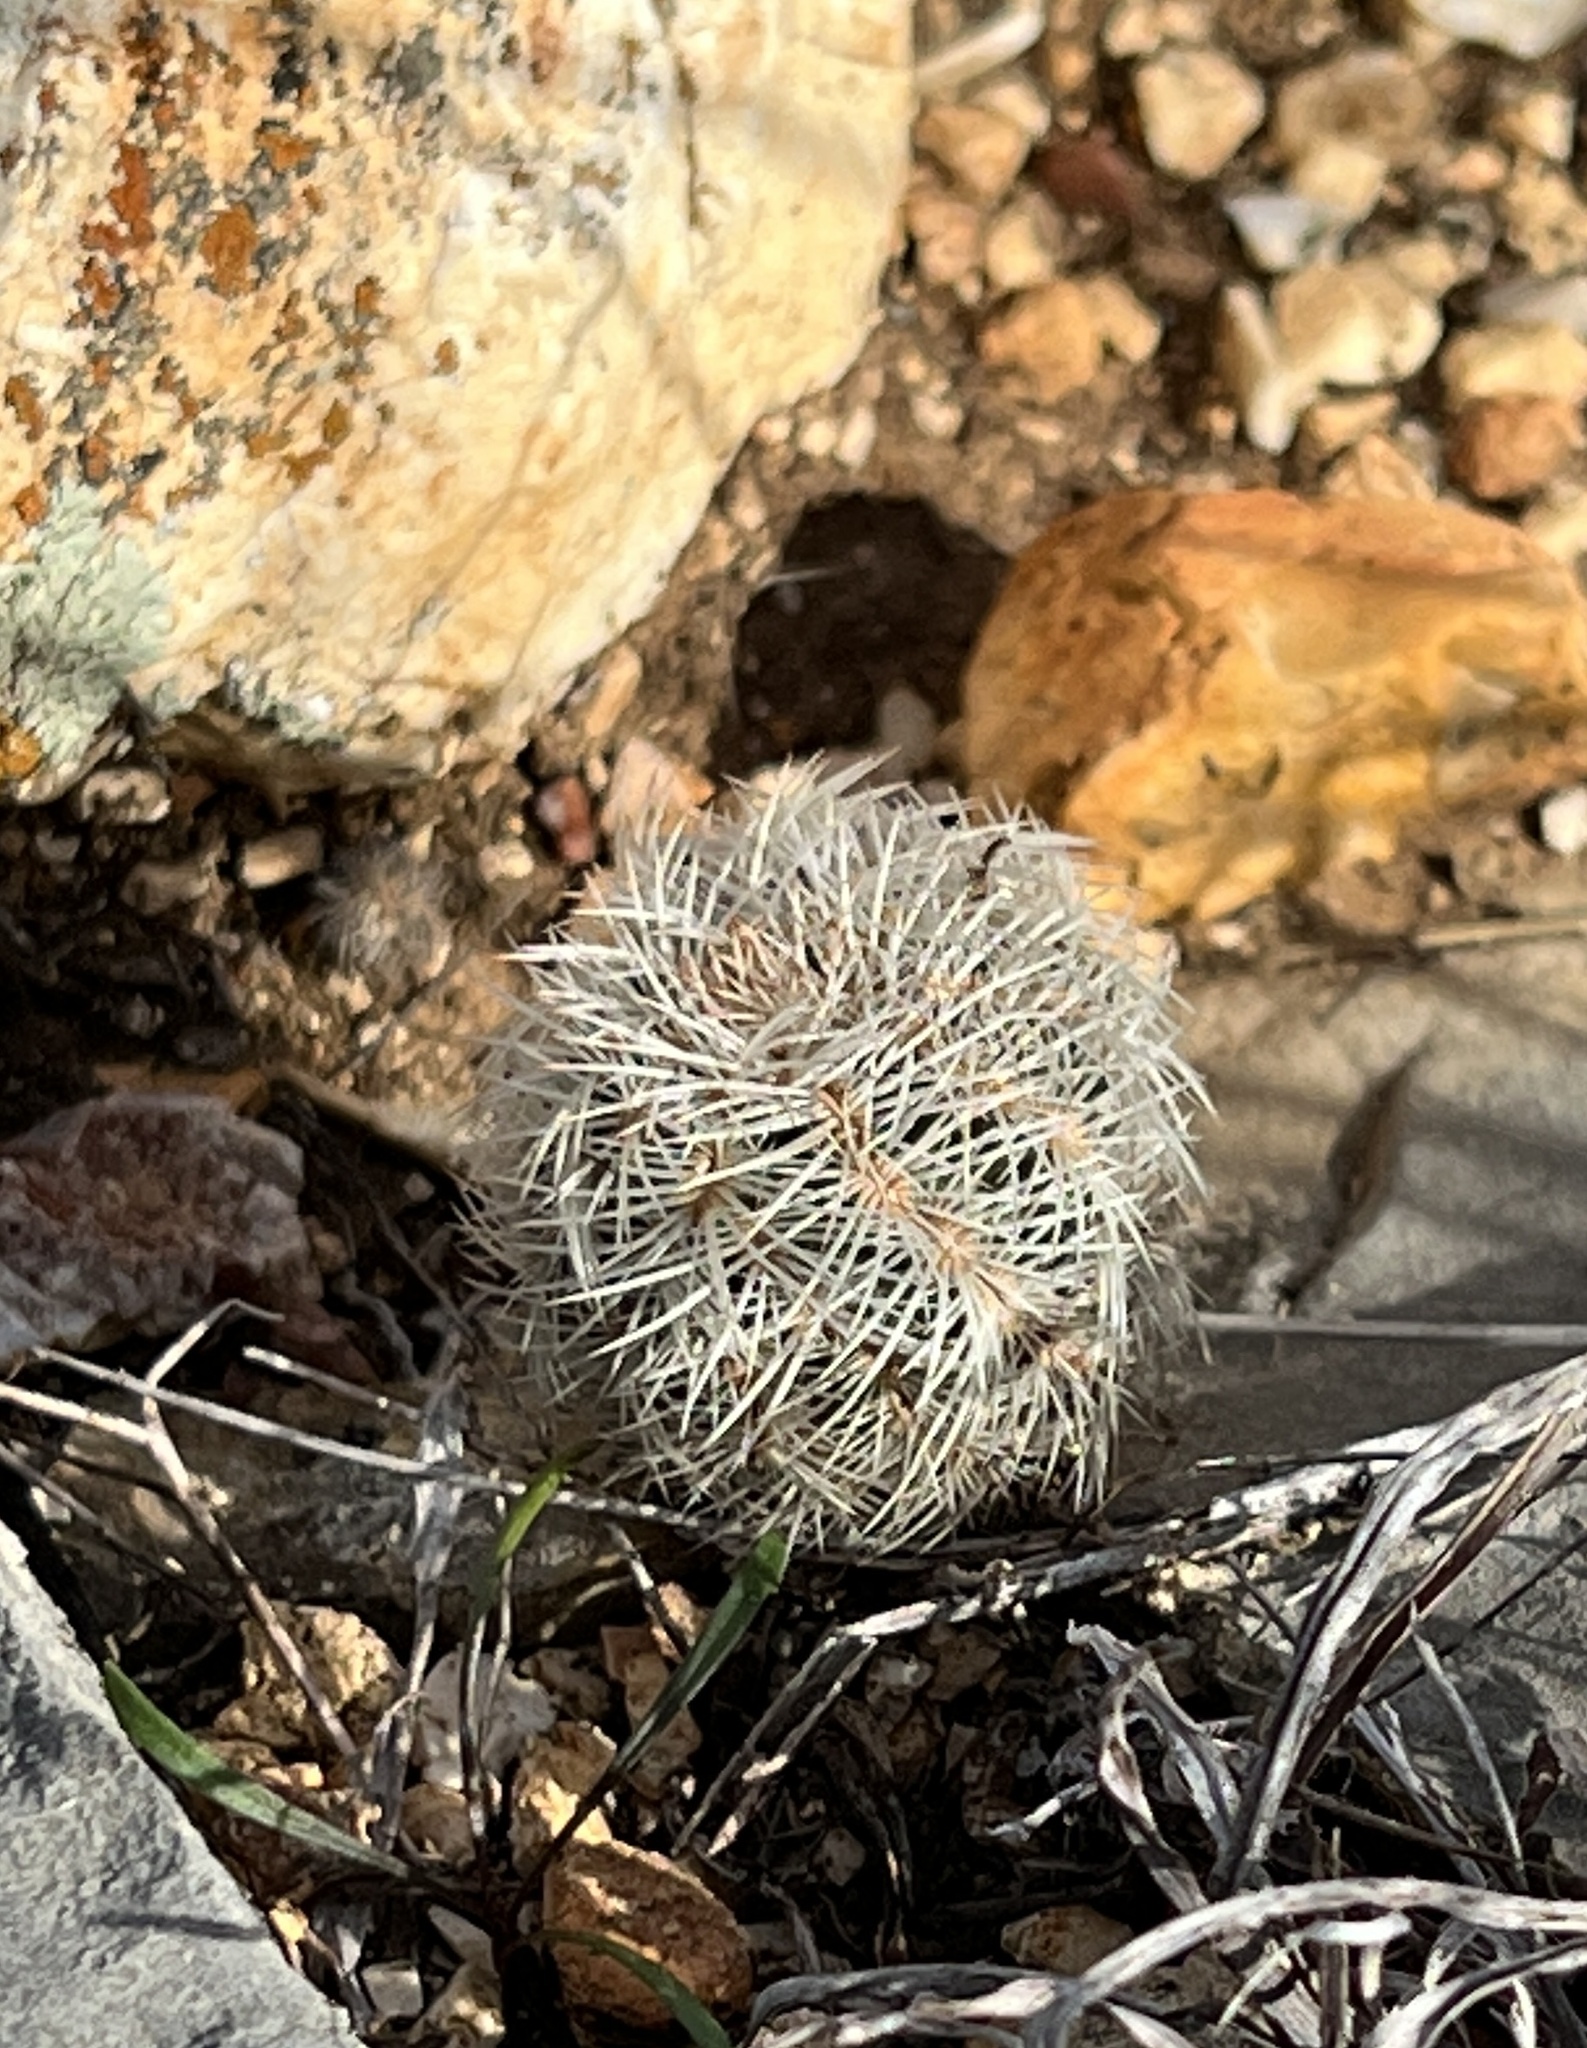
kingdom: Plantae
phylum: Tracheophyta
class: Magnoliopsida
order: Caryophyllales
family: Cactaceae
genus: Echinocereus
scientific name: Echinocereus reichenbachii
